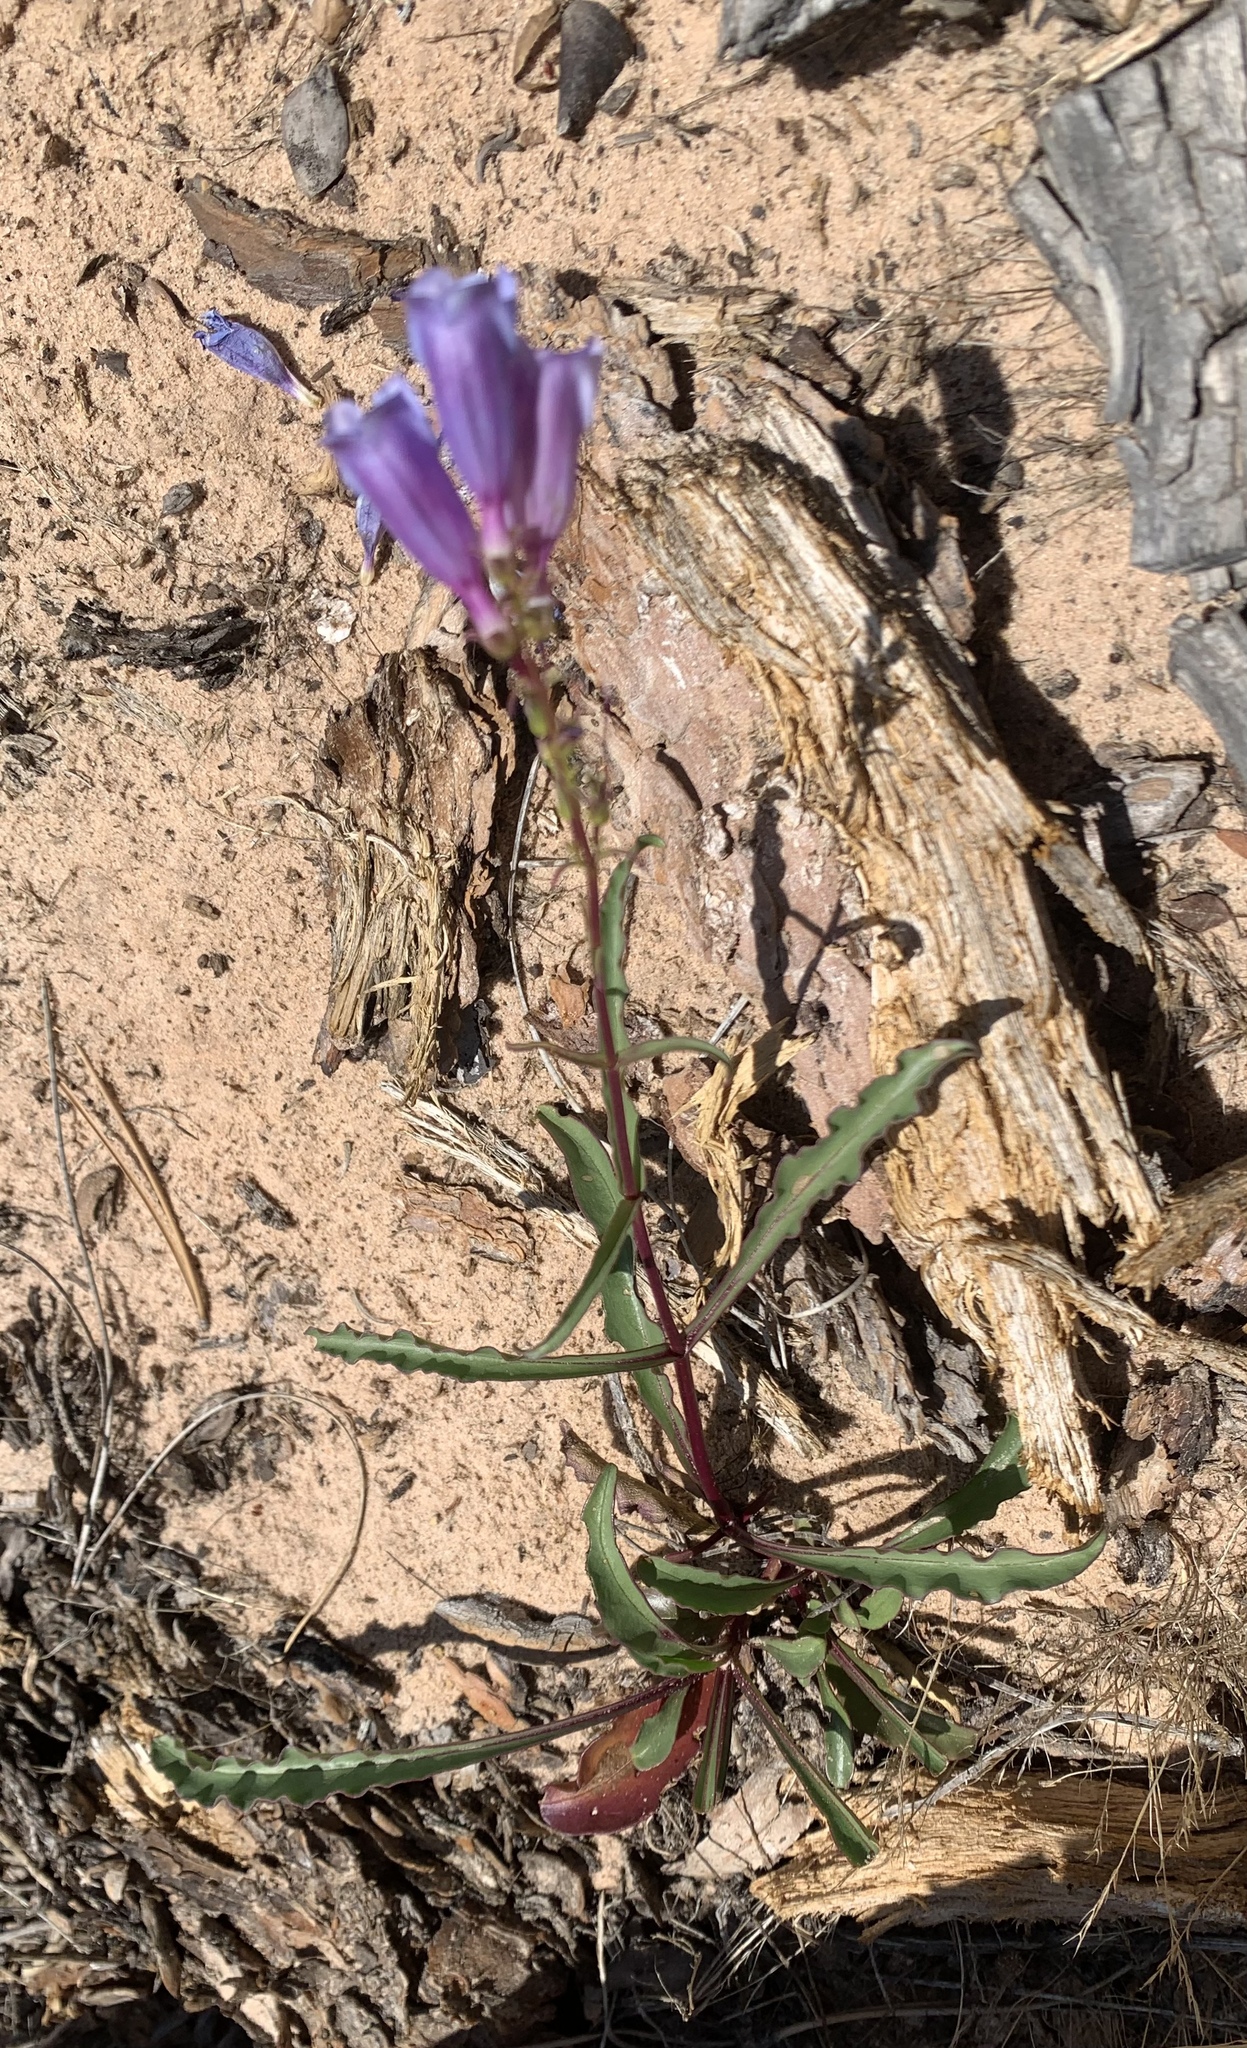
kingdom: Plantae
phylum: Tracheophyta
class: Magnoliopsida
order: Lamiales
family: Plantaginaceae
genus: Penstemon
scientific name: Penstemon laevis
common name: Smooth penstemon
